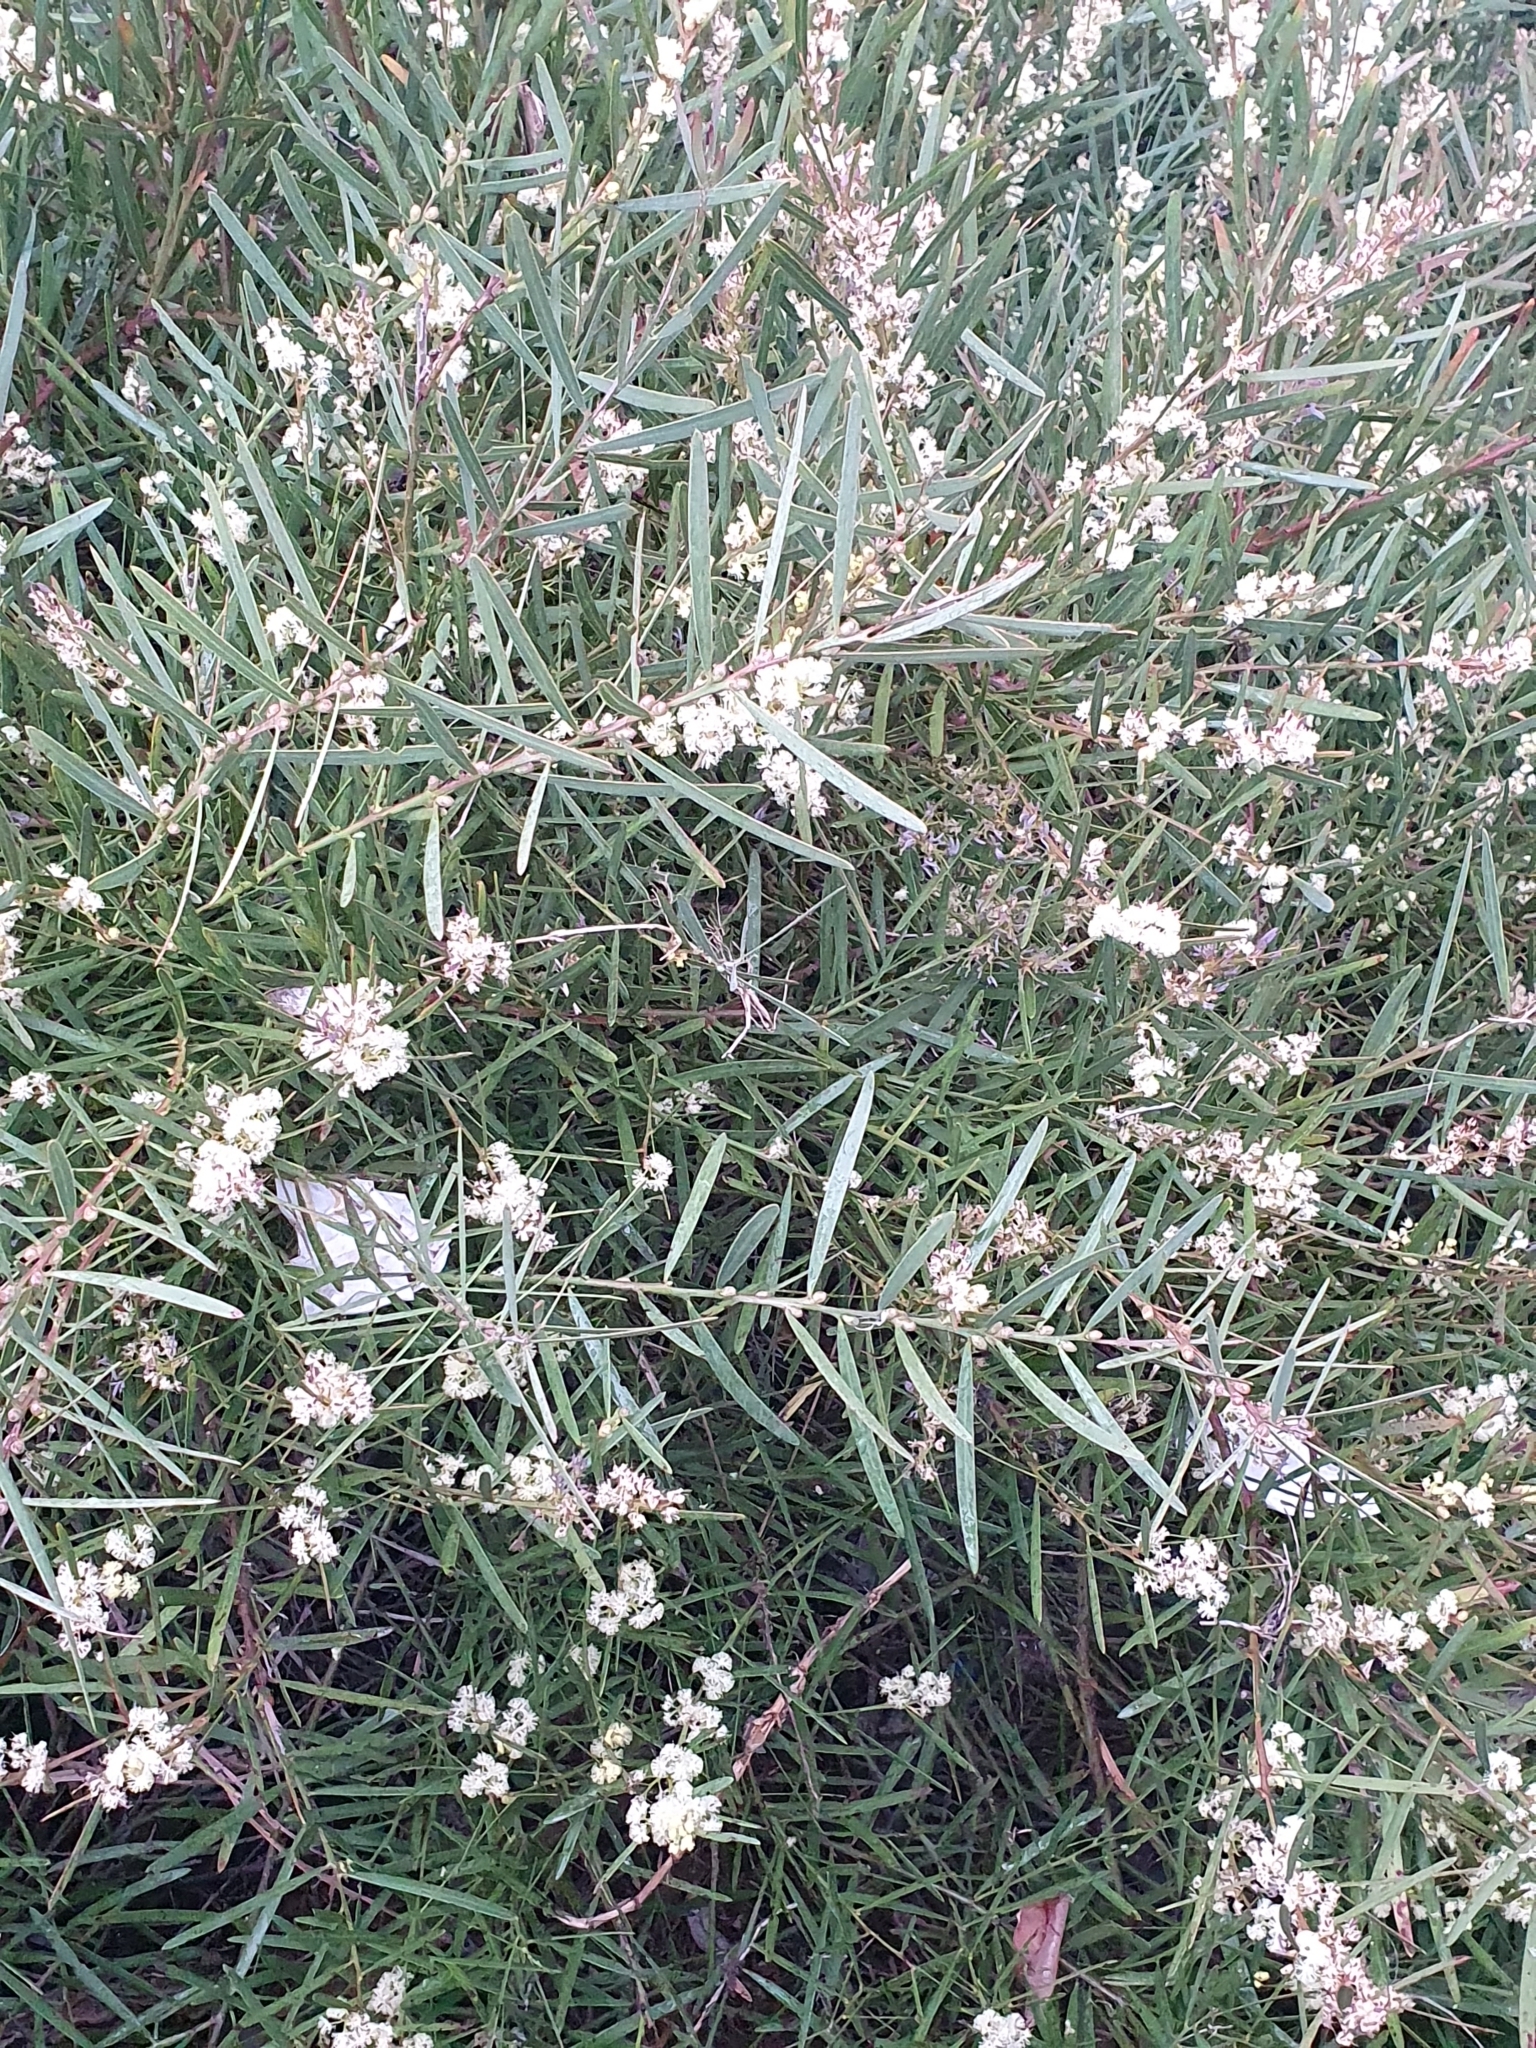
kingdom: Plantae
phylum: Tracheophyta
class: Magnoliopsida
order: Fabales
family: Fabaceae
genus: Acacia
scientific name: Acacia suaveolens
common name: Sweet acacia
